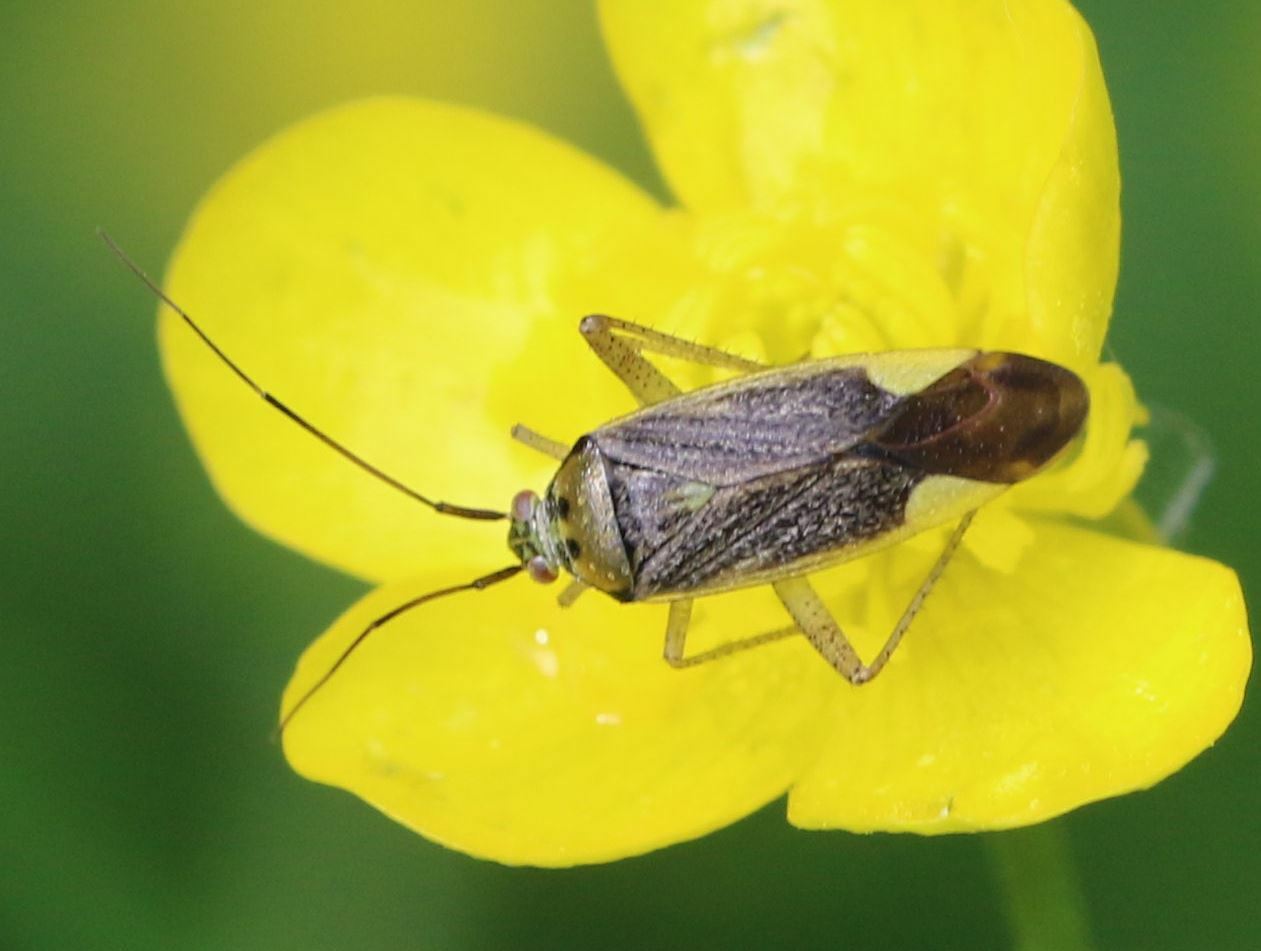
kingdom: Animalia
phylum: Arthropoda
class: Insecta
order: Hemiptera
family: Miridae
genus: Closterotomus
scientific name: Closterotomus trivialis
